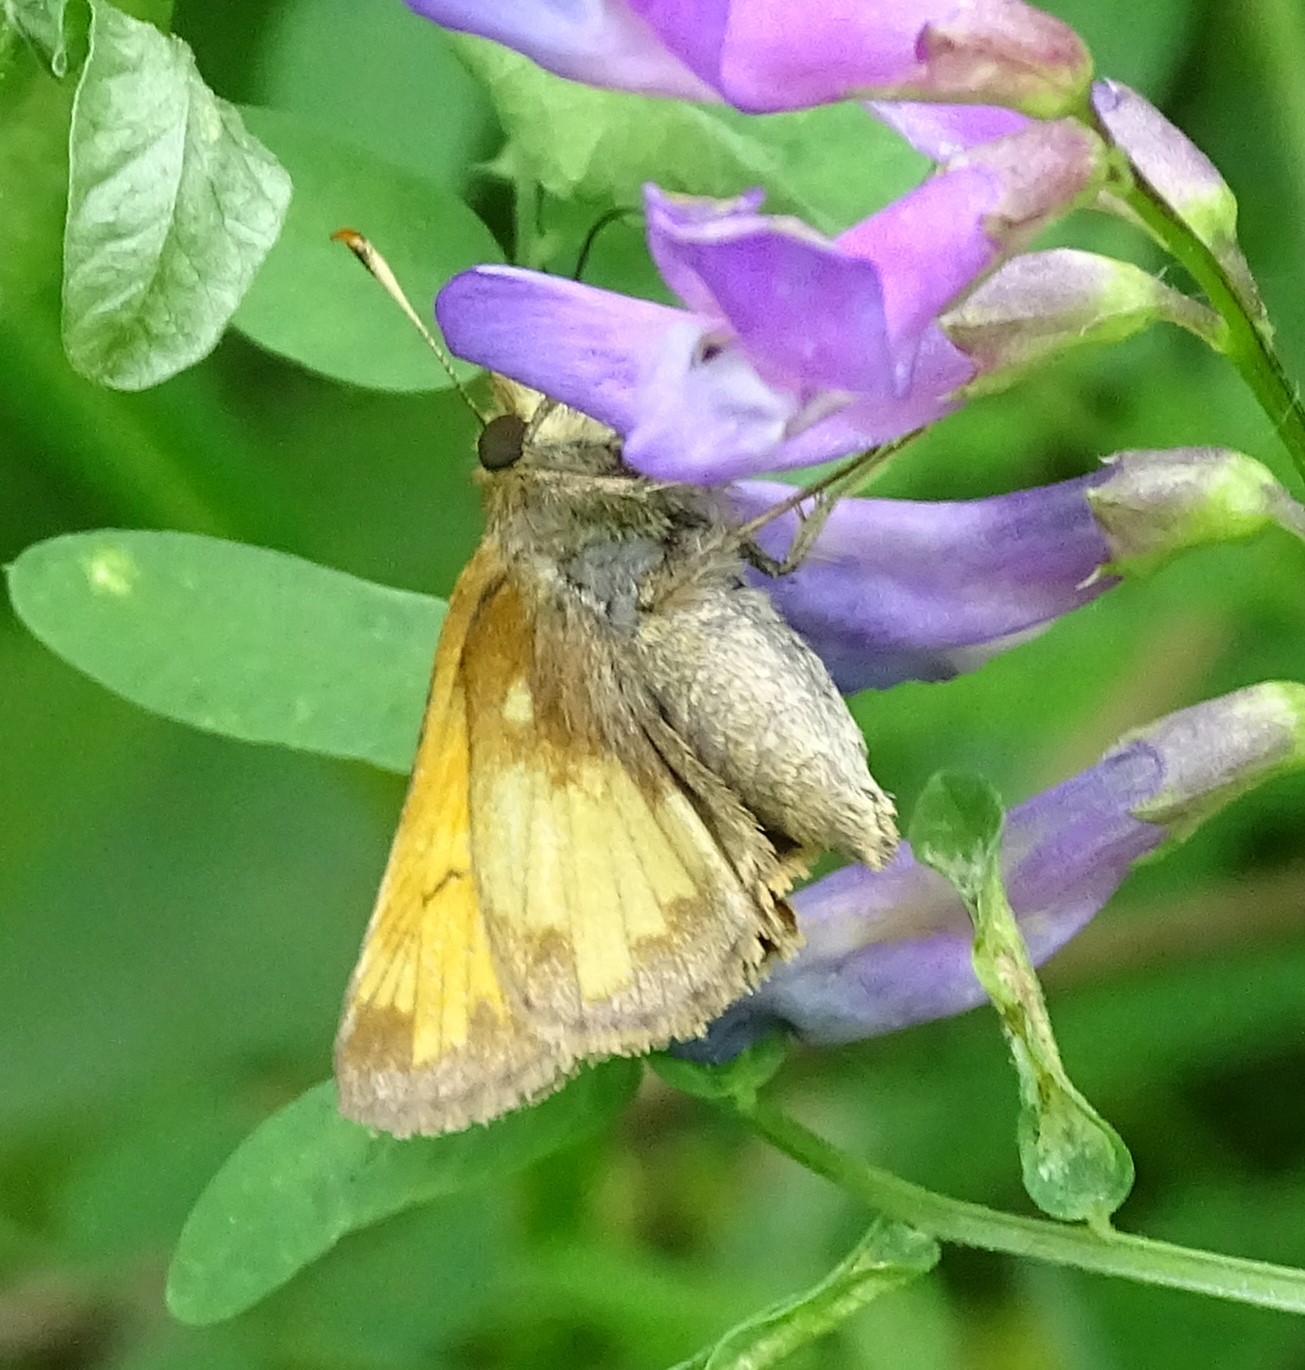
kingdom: Animalia
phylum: Arthropoda
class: Insecta
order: Lepidoptera
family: Hesperiidae
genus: Lon
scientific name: Lon hobomok
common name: Hobomok skipper
